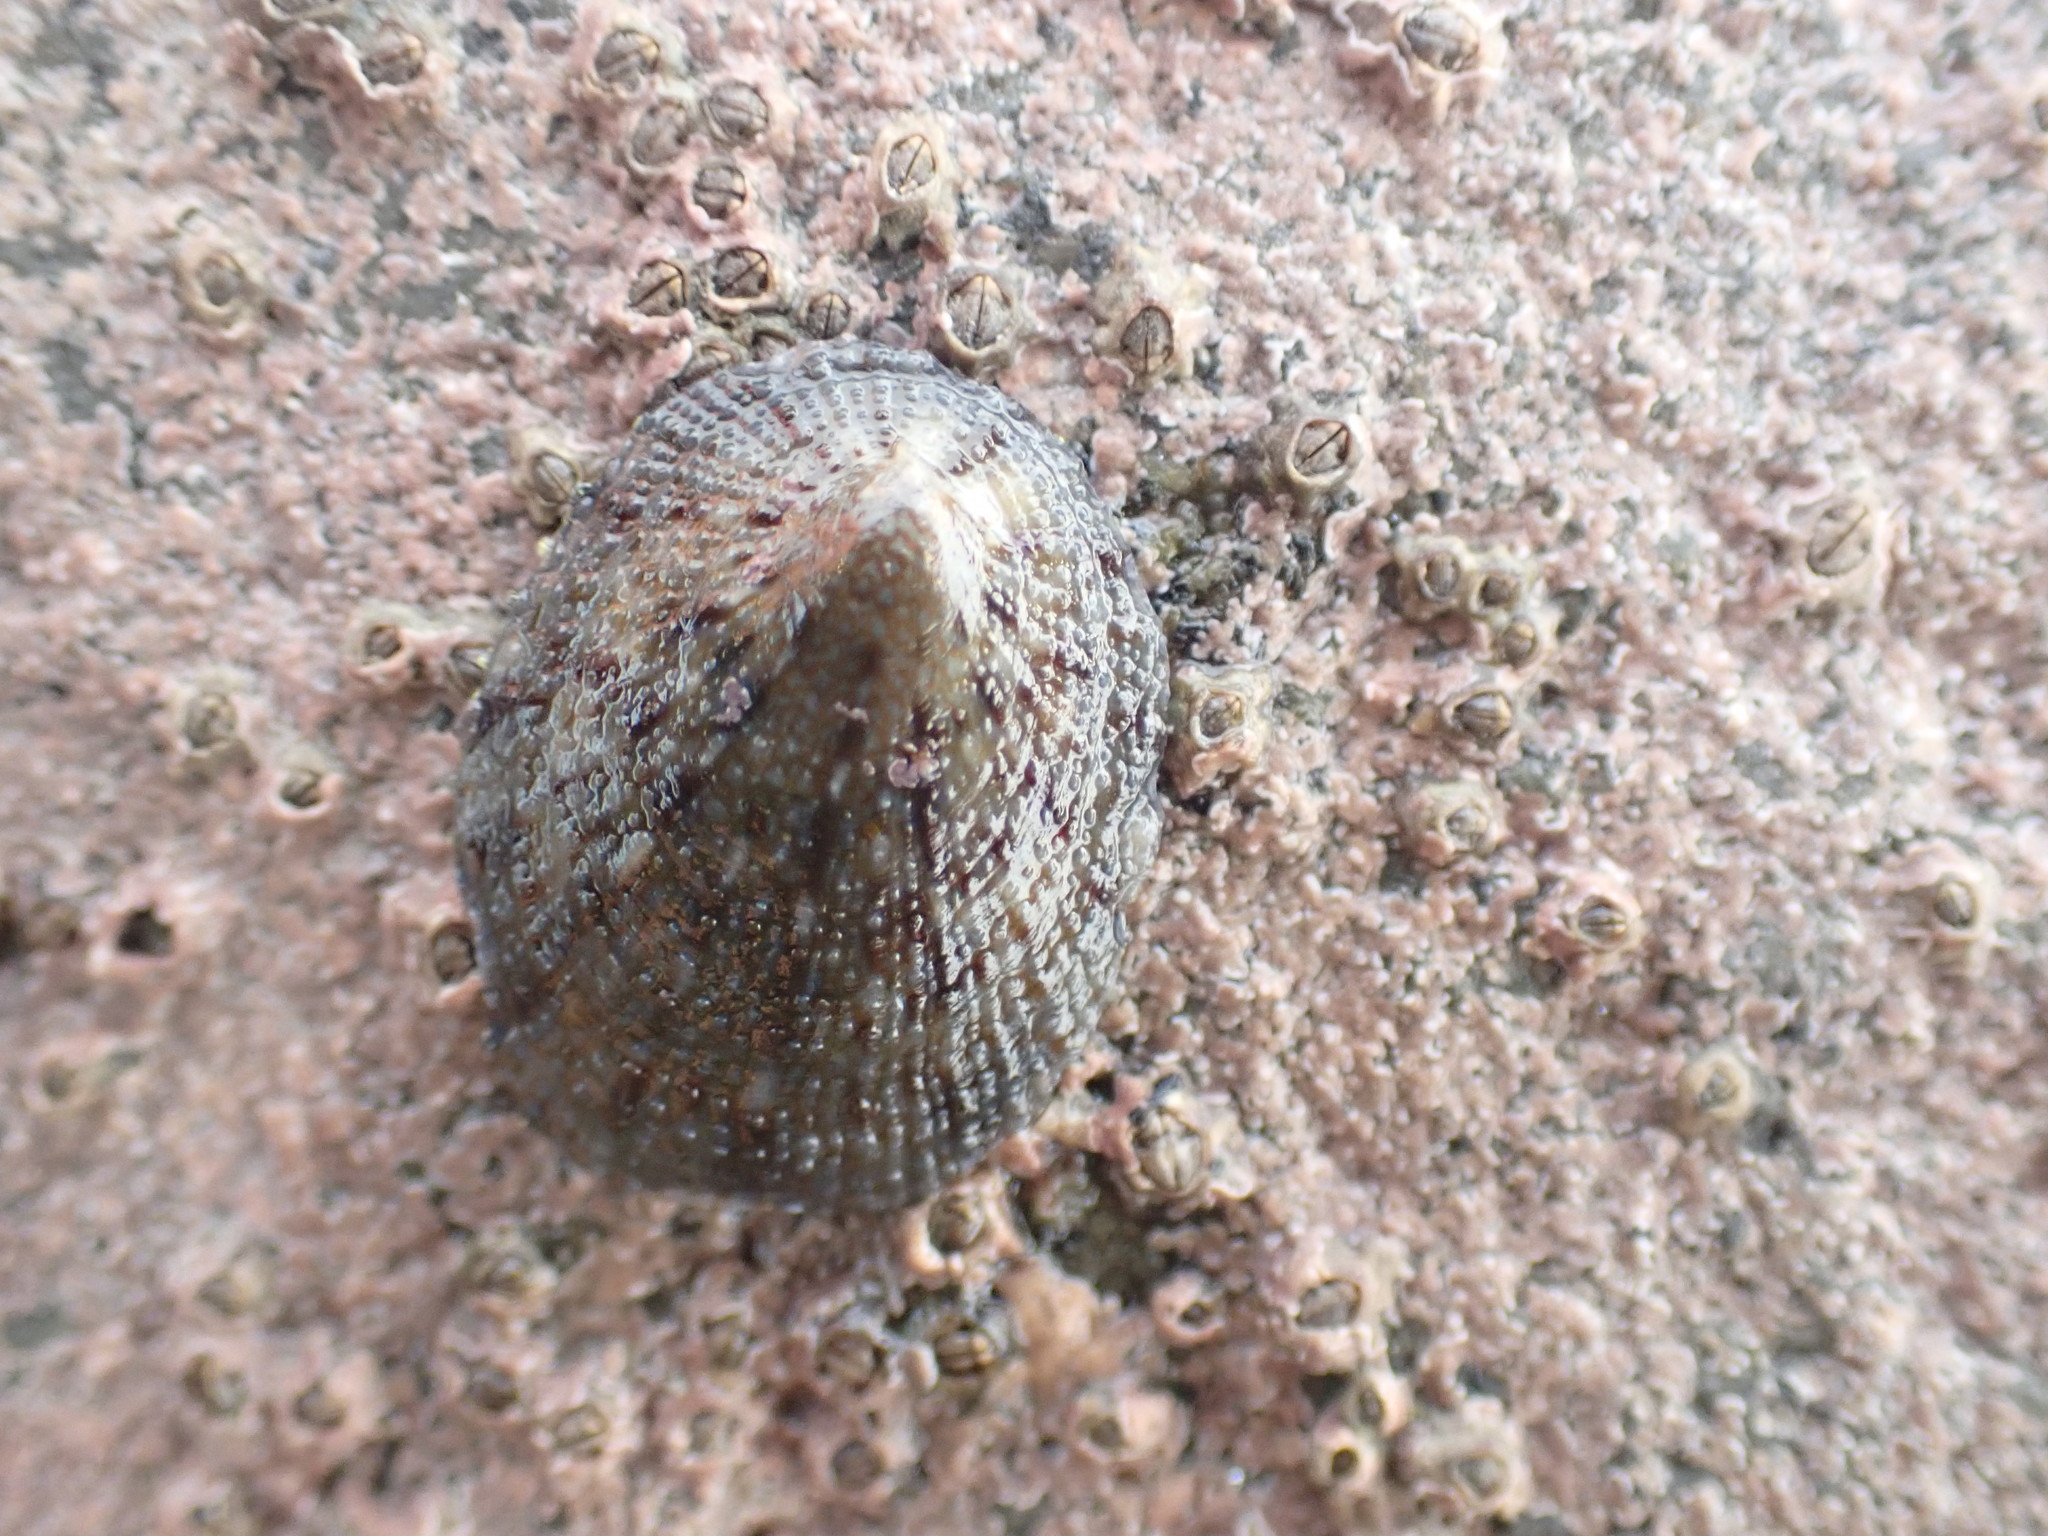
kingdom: Animalia
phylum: Mollusca
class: Gastropoda
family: Nacellidae
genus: Cellana
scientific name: Cellana radians
